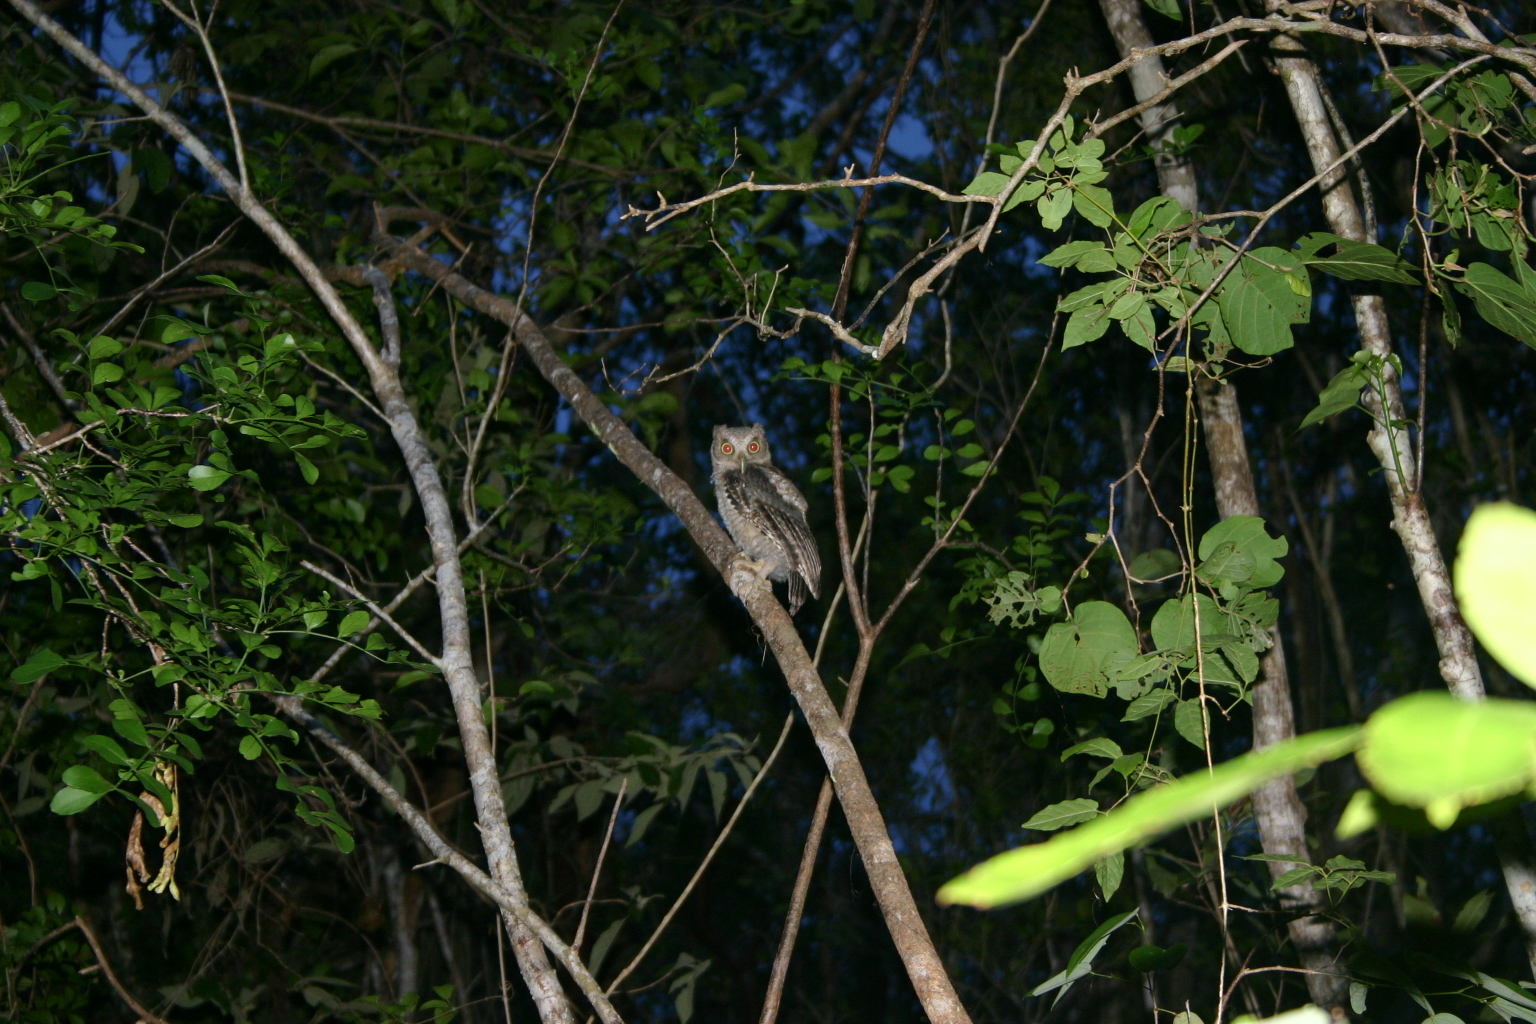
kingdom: Animalia
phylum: Chordata
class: Aves
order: Strigiformes
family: Strigidae
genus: Megascops
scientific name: Megascops guatemalae
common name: Vermiculated screech-owl
